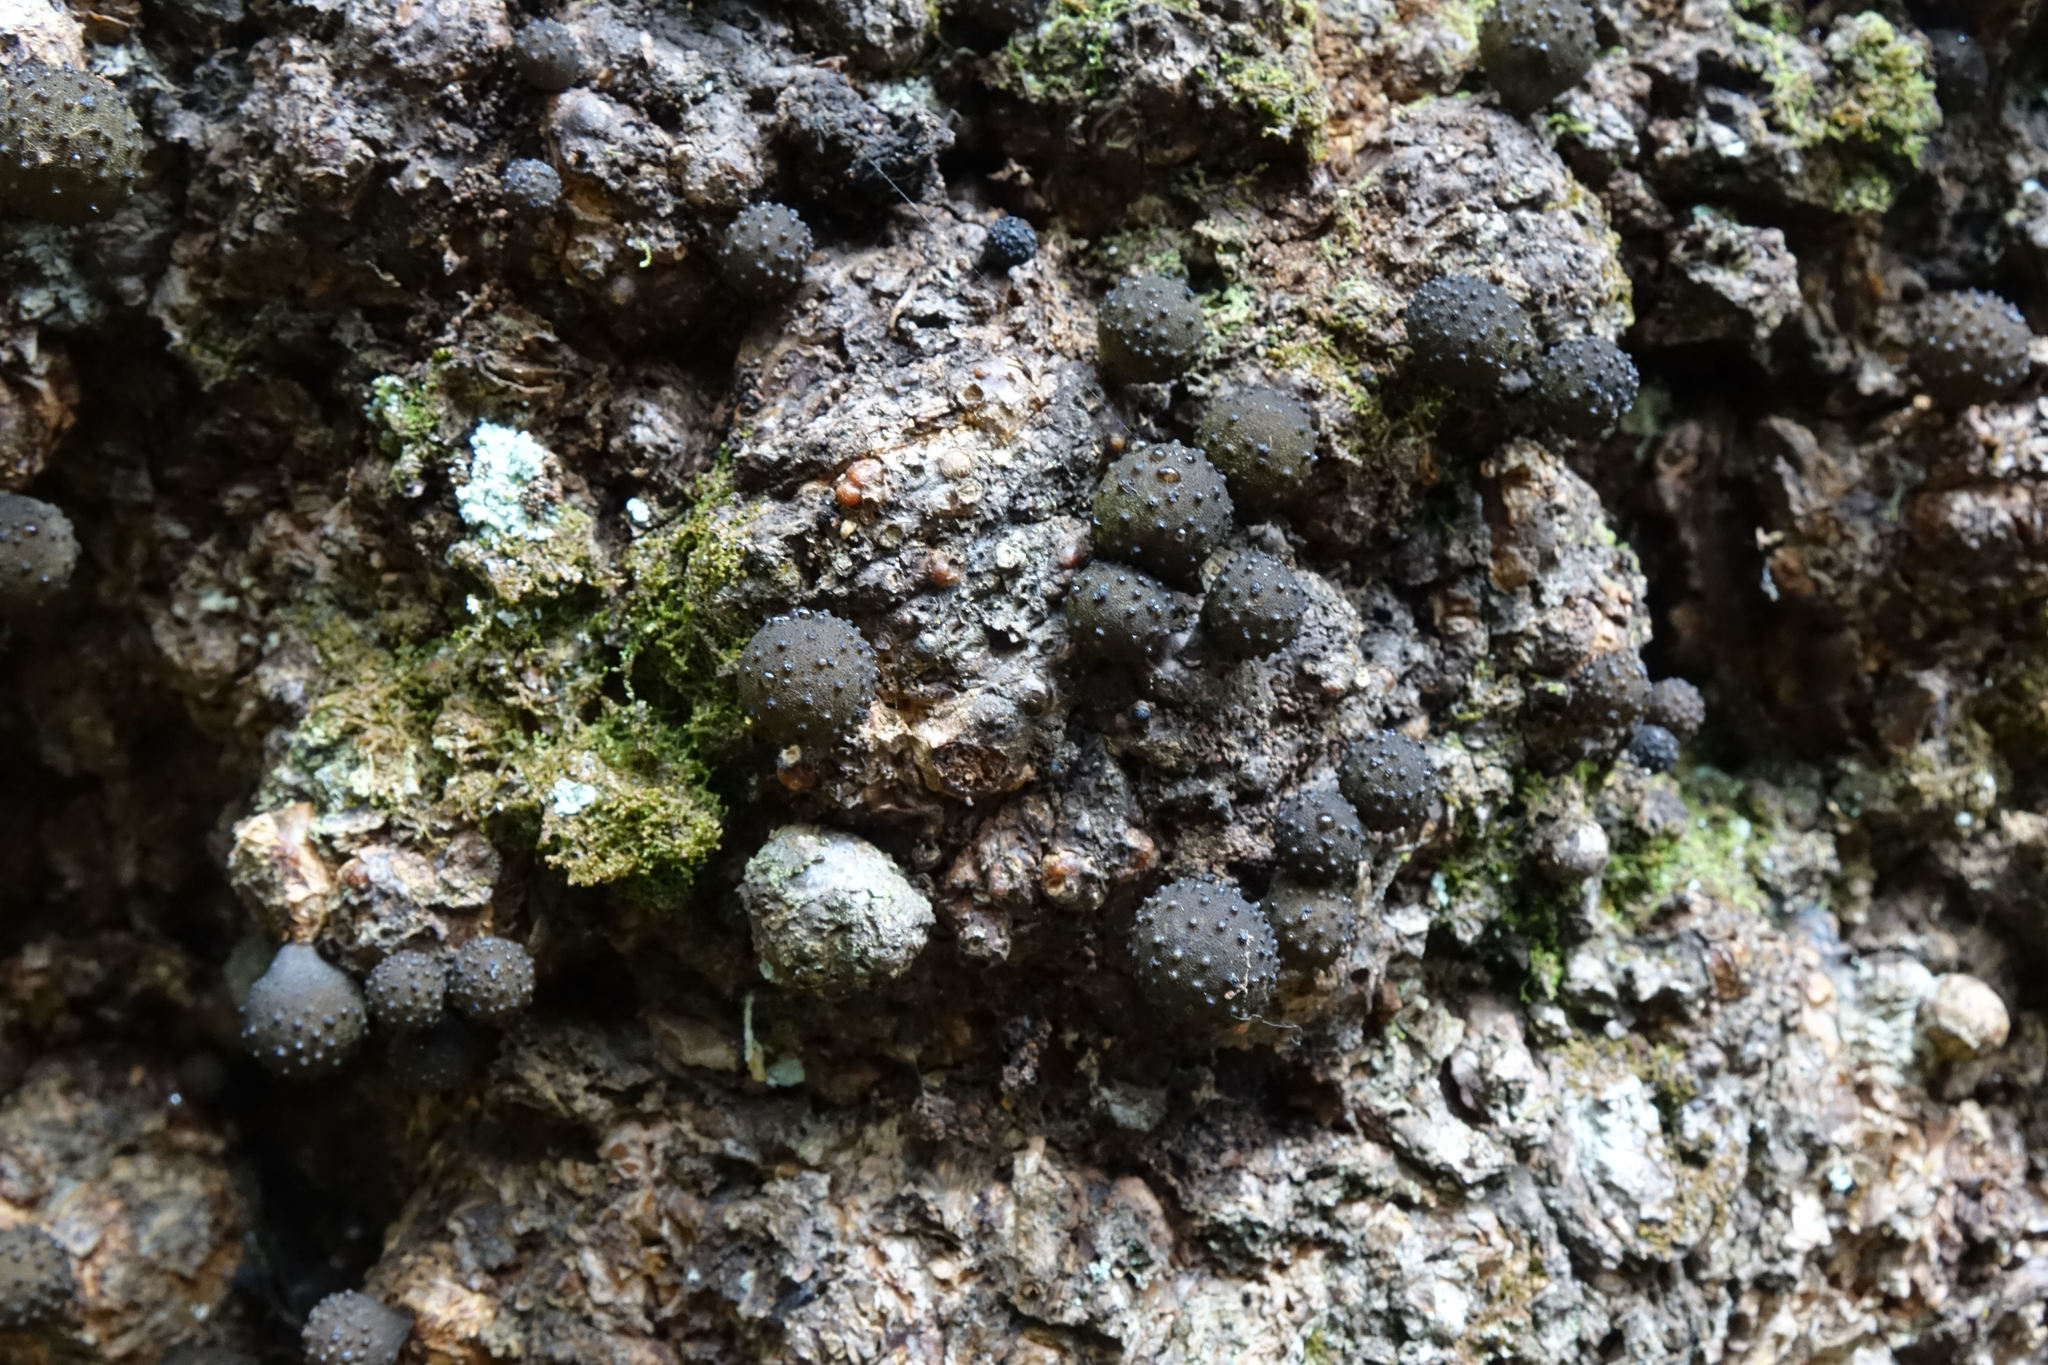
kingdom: Fungi
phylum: Ascomycota
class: Leotiomycetes
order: Cyttariales
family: Cyttariaceae
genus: Cyttaria
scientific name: Cyttaria nigra
